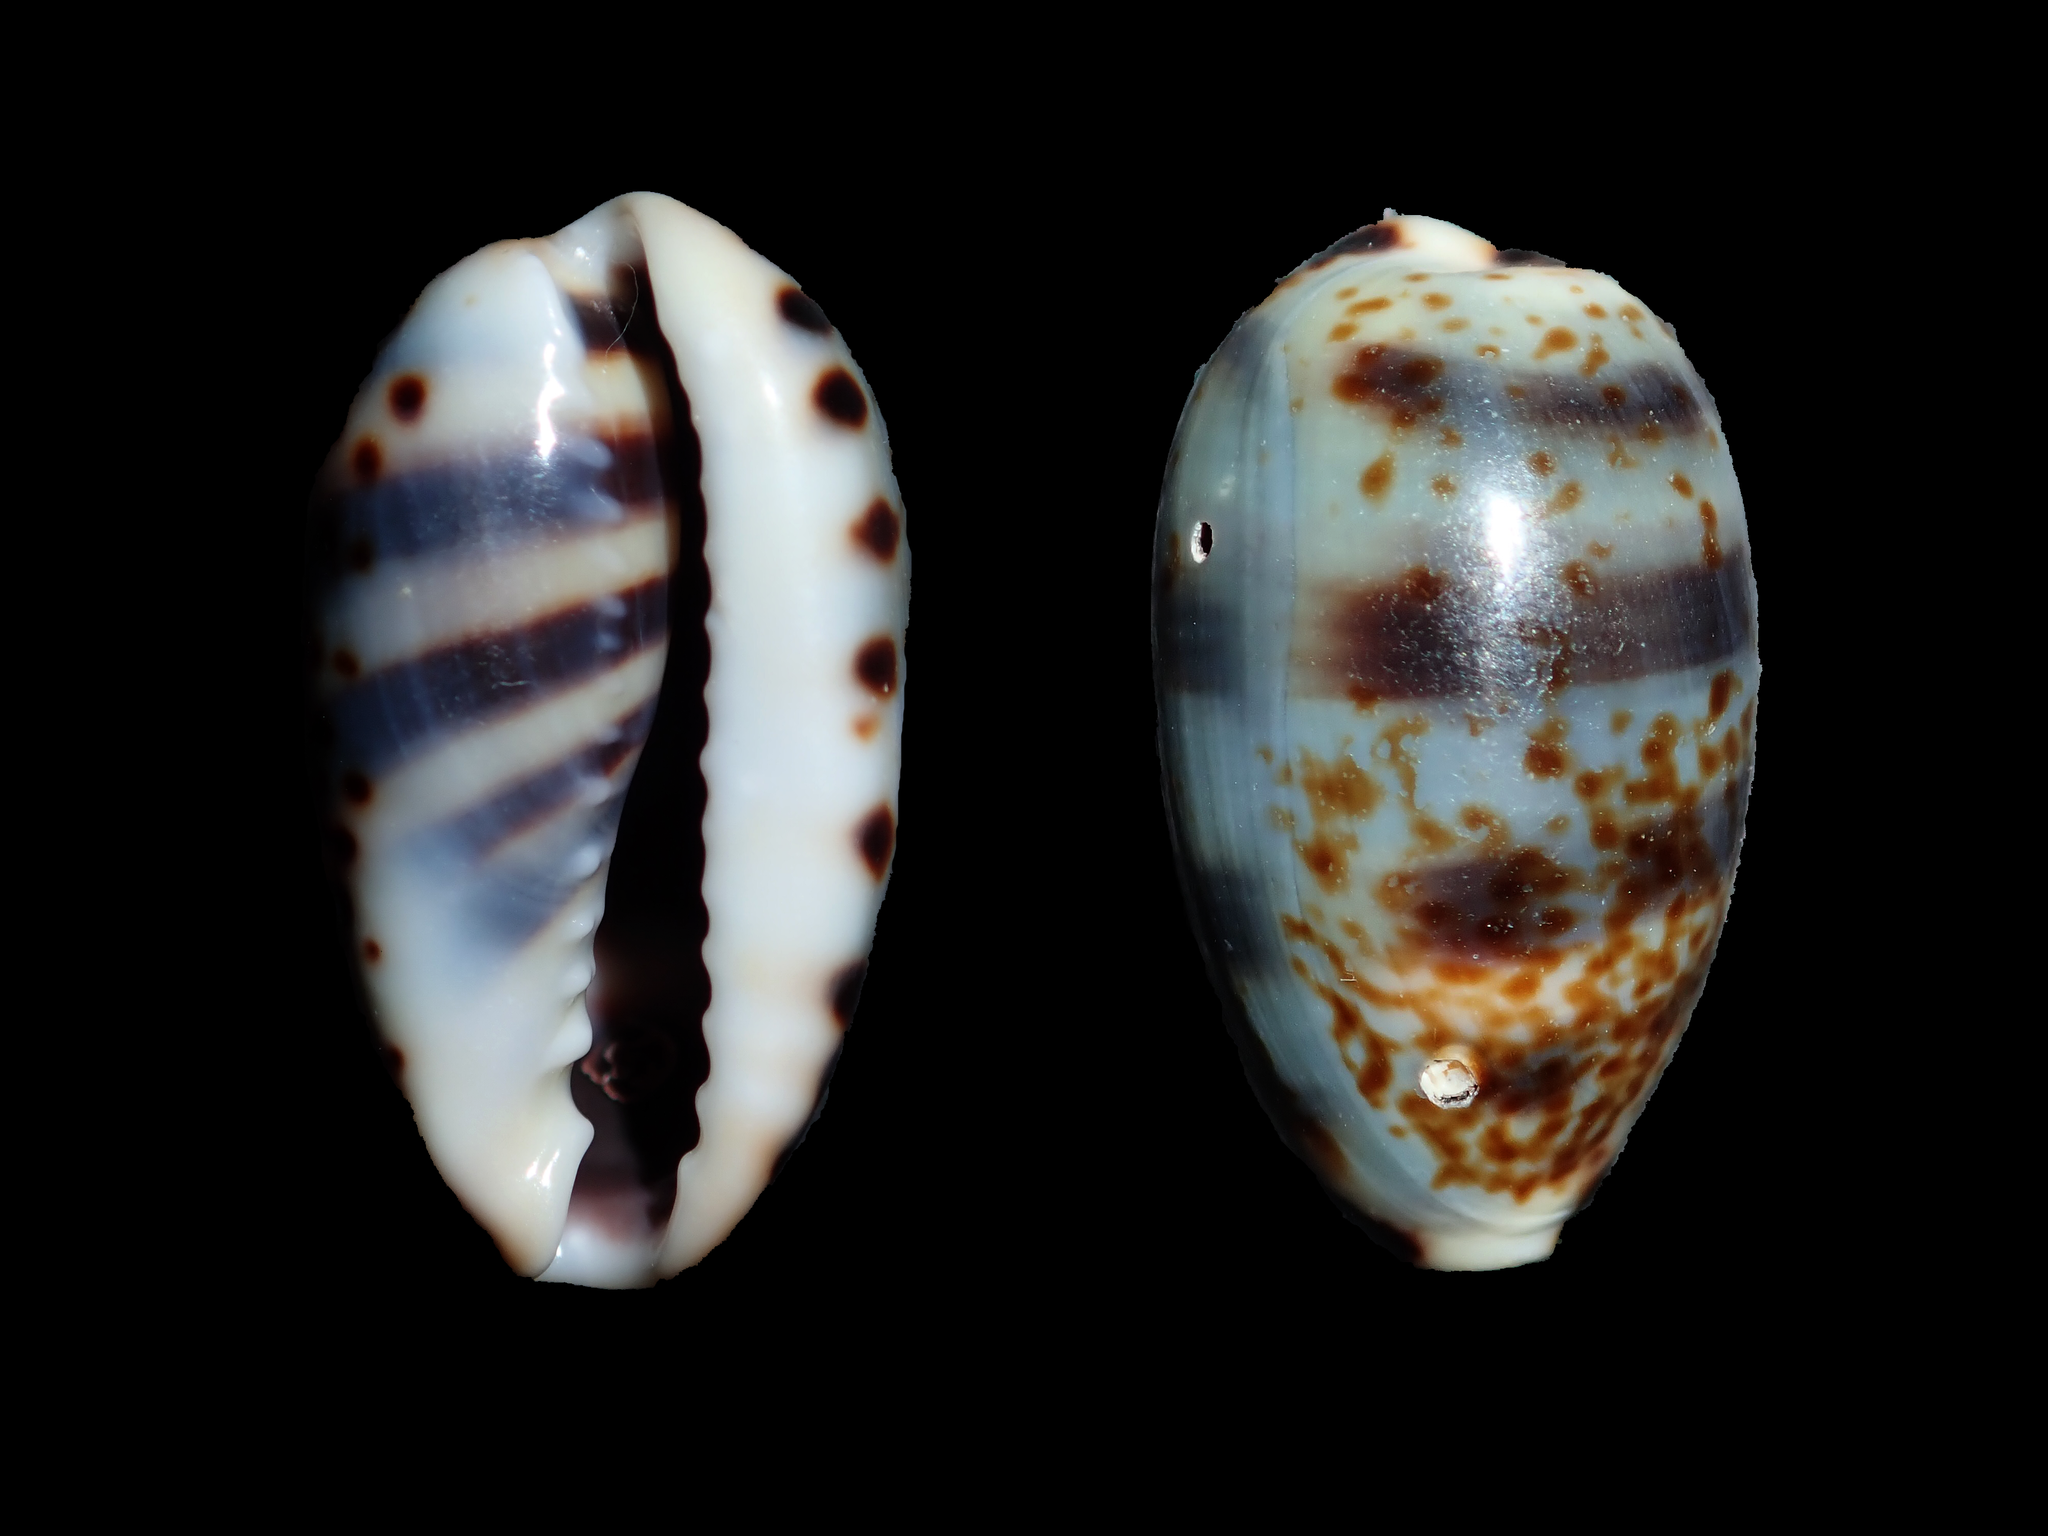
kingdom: Animalia
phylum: Mollusca
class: Gastropoda
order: Littorinimorpha
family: Cypraeidae
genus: Melicerona
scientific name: Melicerona listeri
